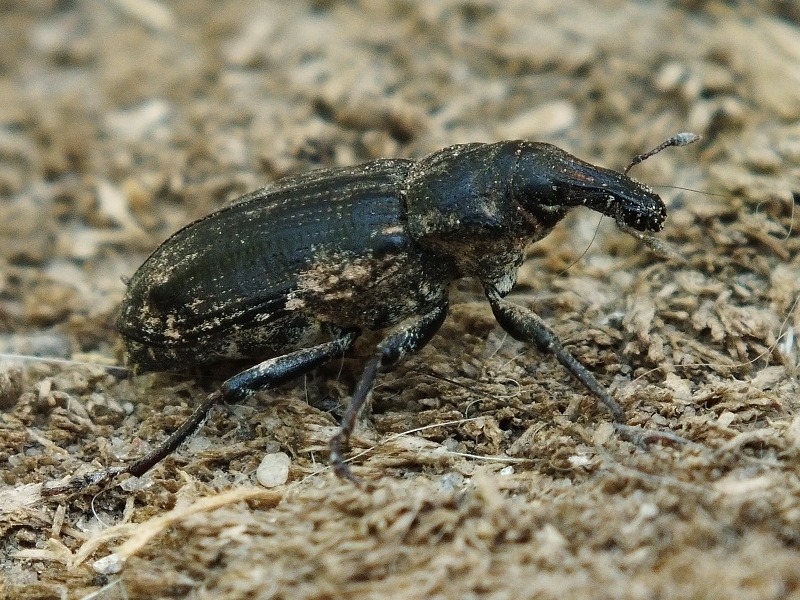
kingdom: Animalia
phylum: Arthropoda
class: Insecta
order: Coleoptera
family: Curculionidae
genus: Asproparthenis
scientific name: Asproparthenis punctiventris
